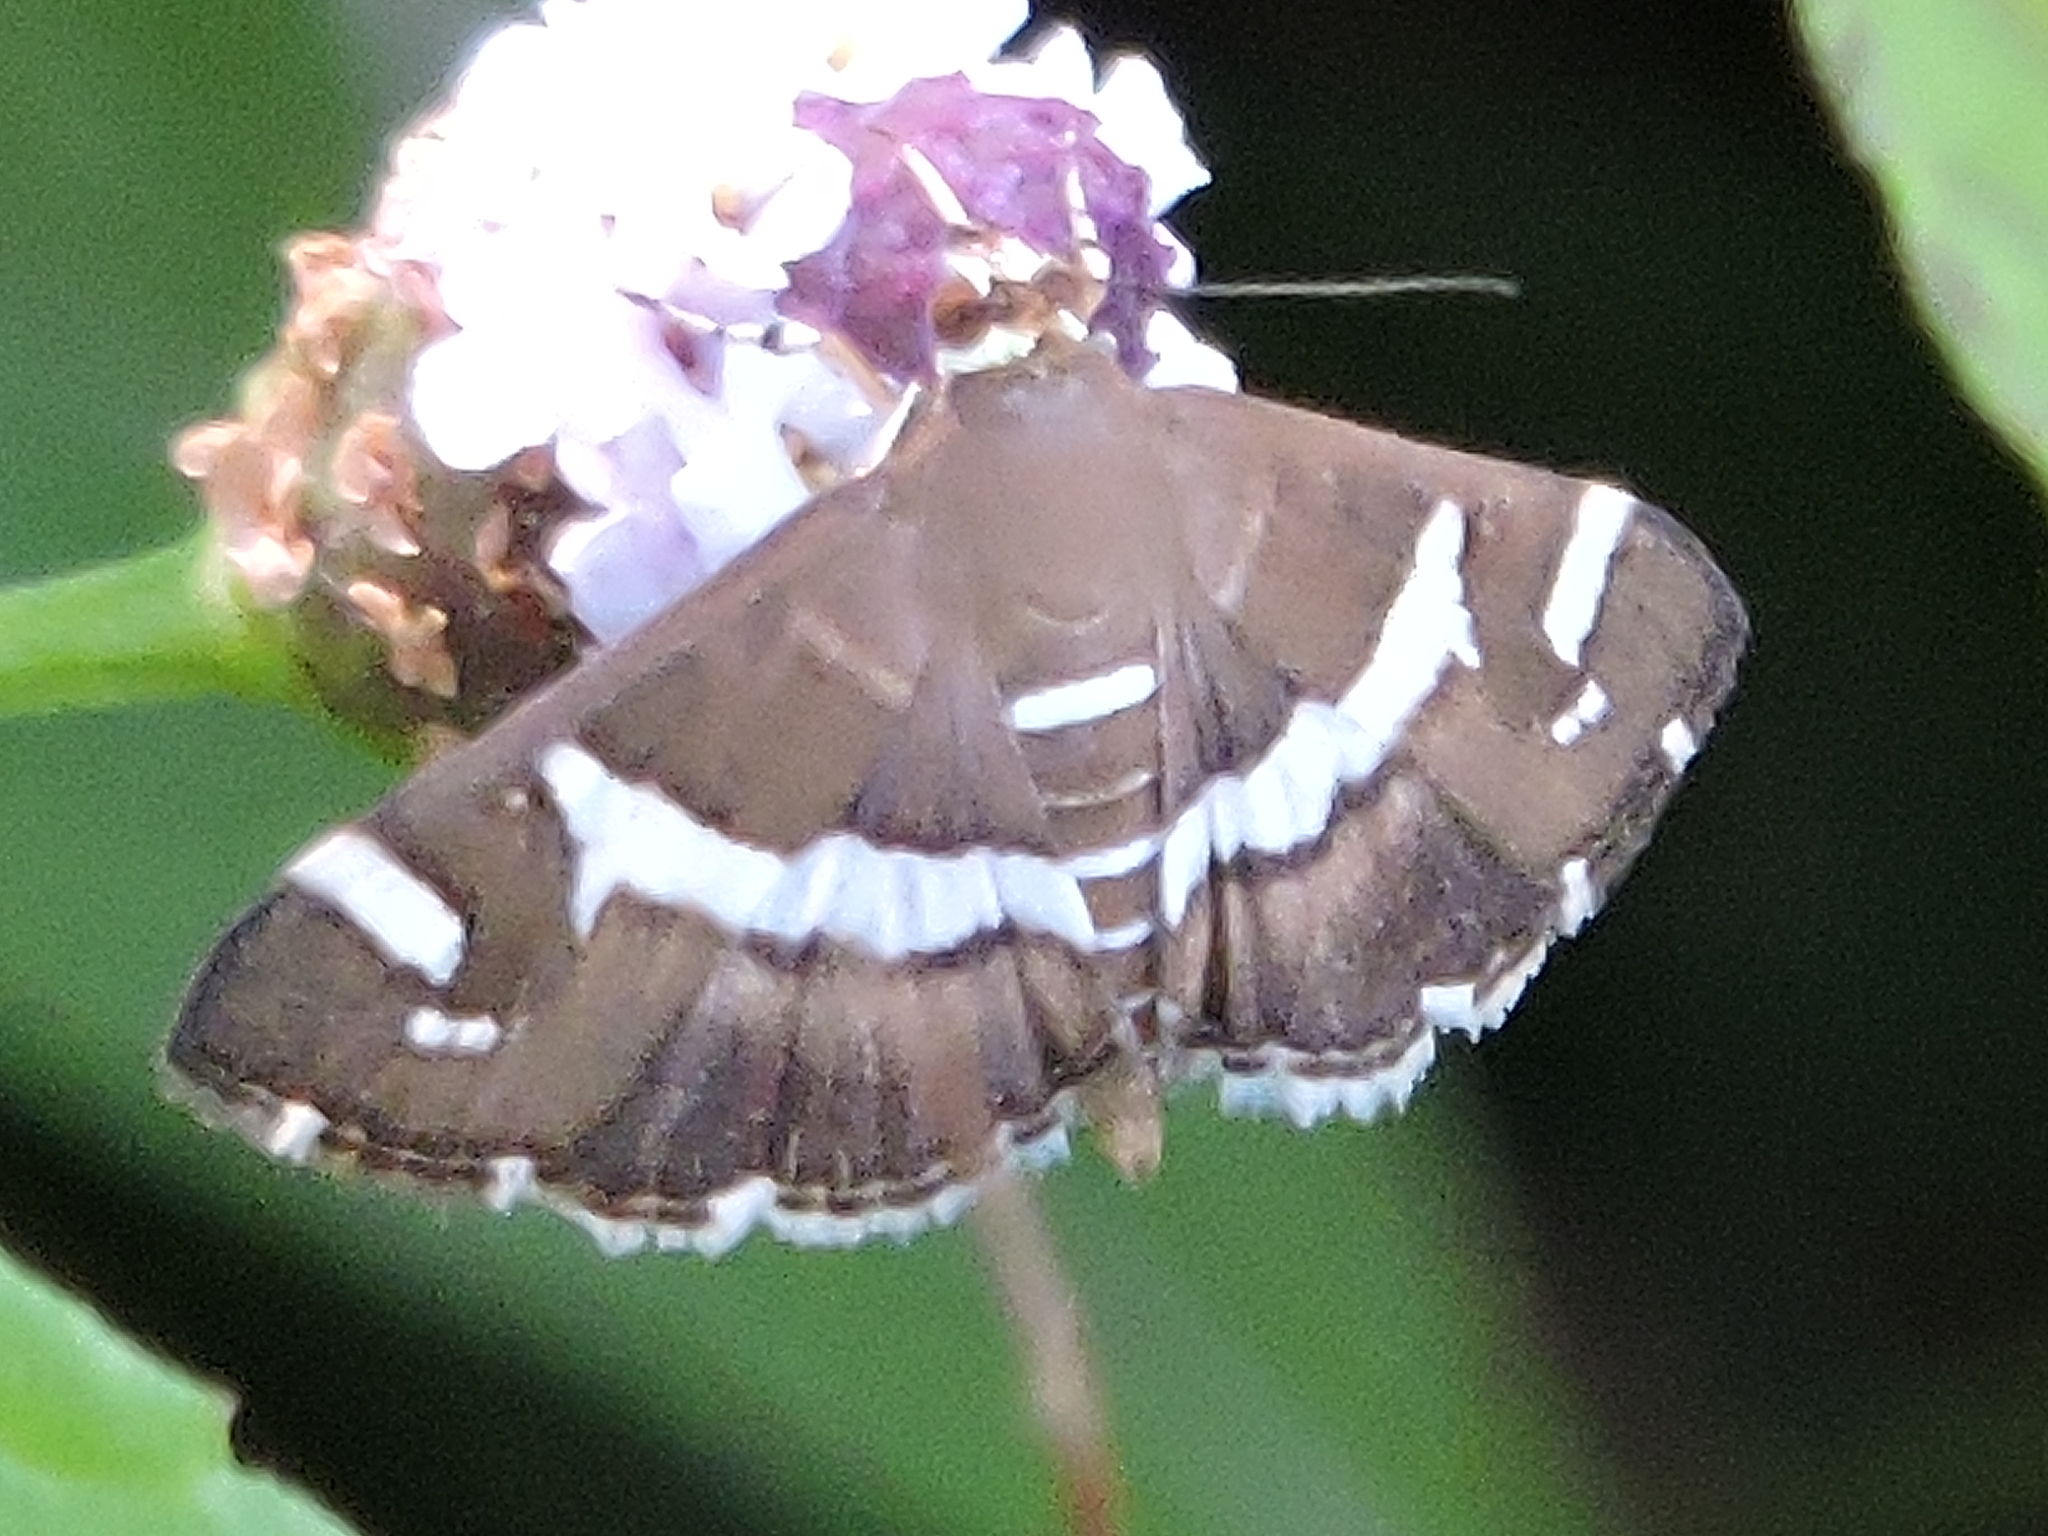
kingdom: Animalia
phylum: Arthropoda
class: Insecta
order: Lepidoptera
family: Crambidae
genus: Spoladea
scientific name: Spoladea recurvalis
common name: Beet webworm moth
